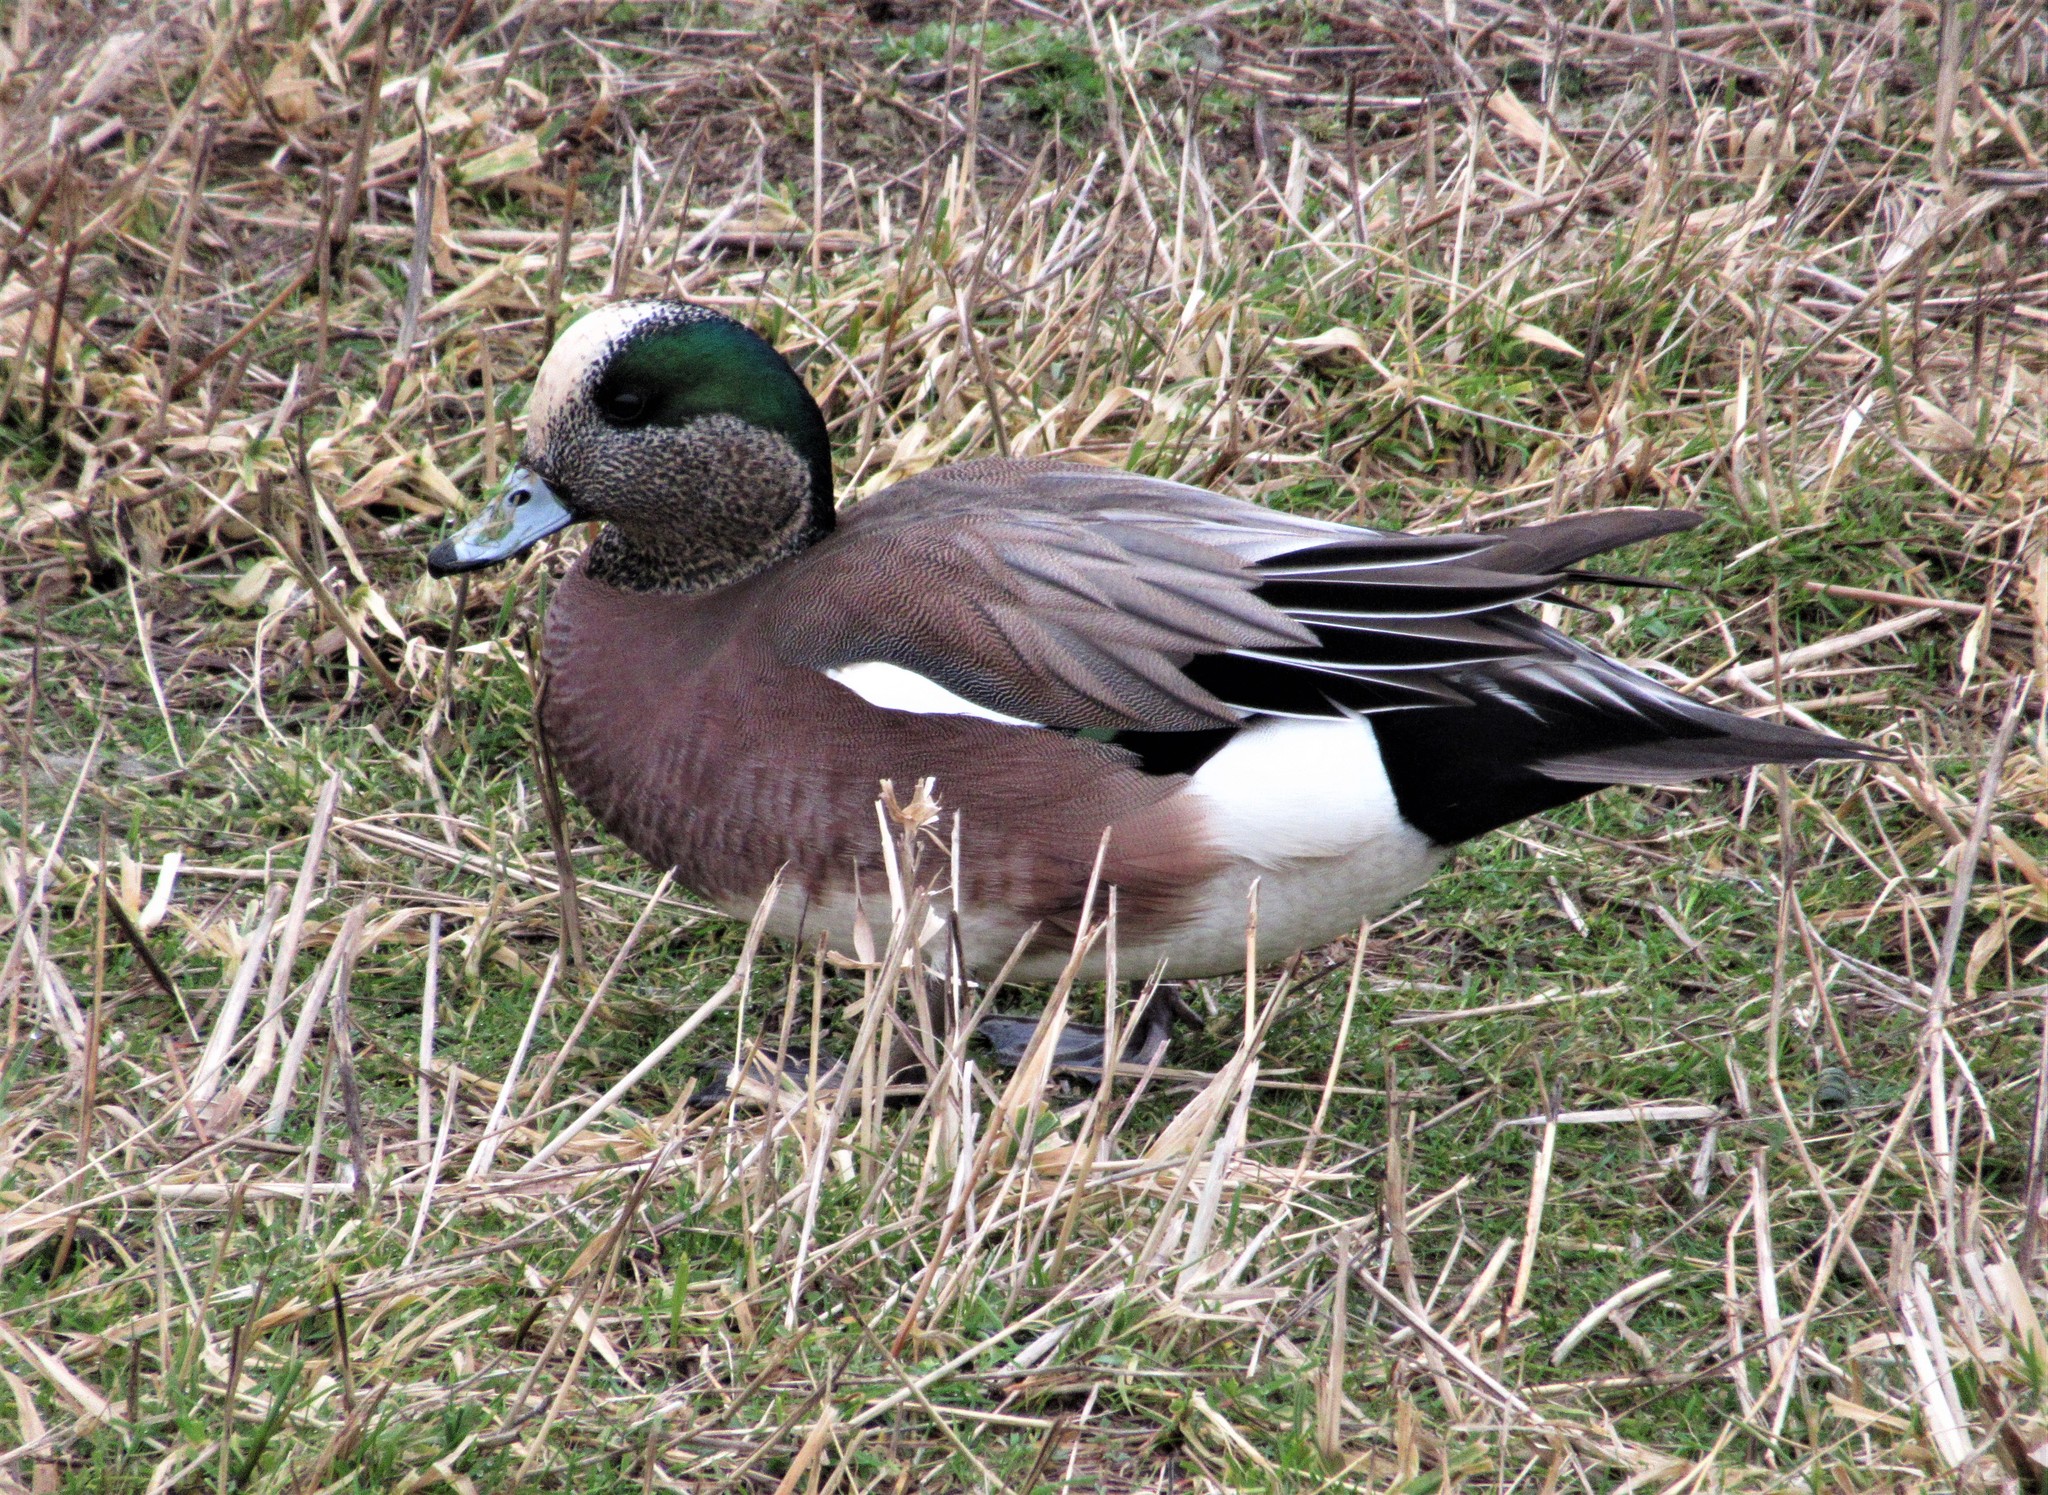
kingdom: Animalia
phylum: Chordata
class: Aves
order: Anseriformes
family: Anatidae
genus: Mareca
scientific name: Mareca americana
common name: American wigeon
